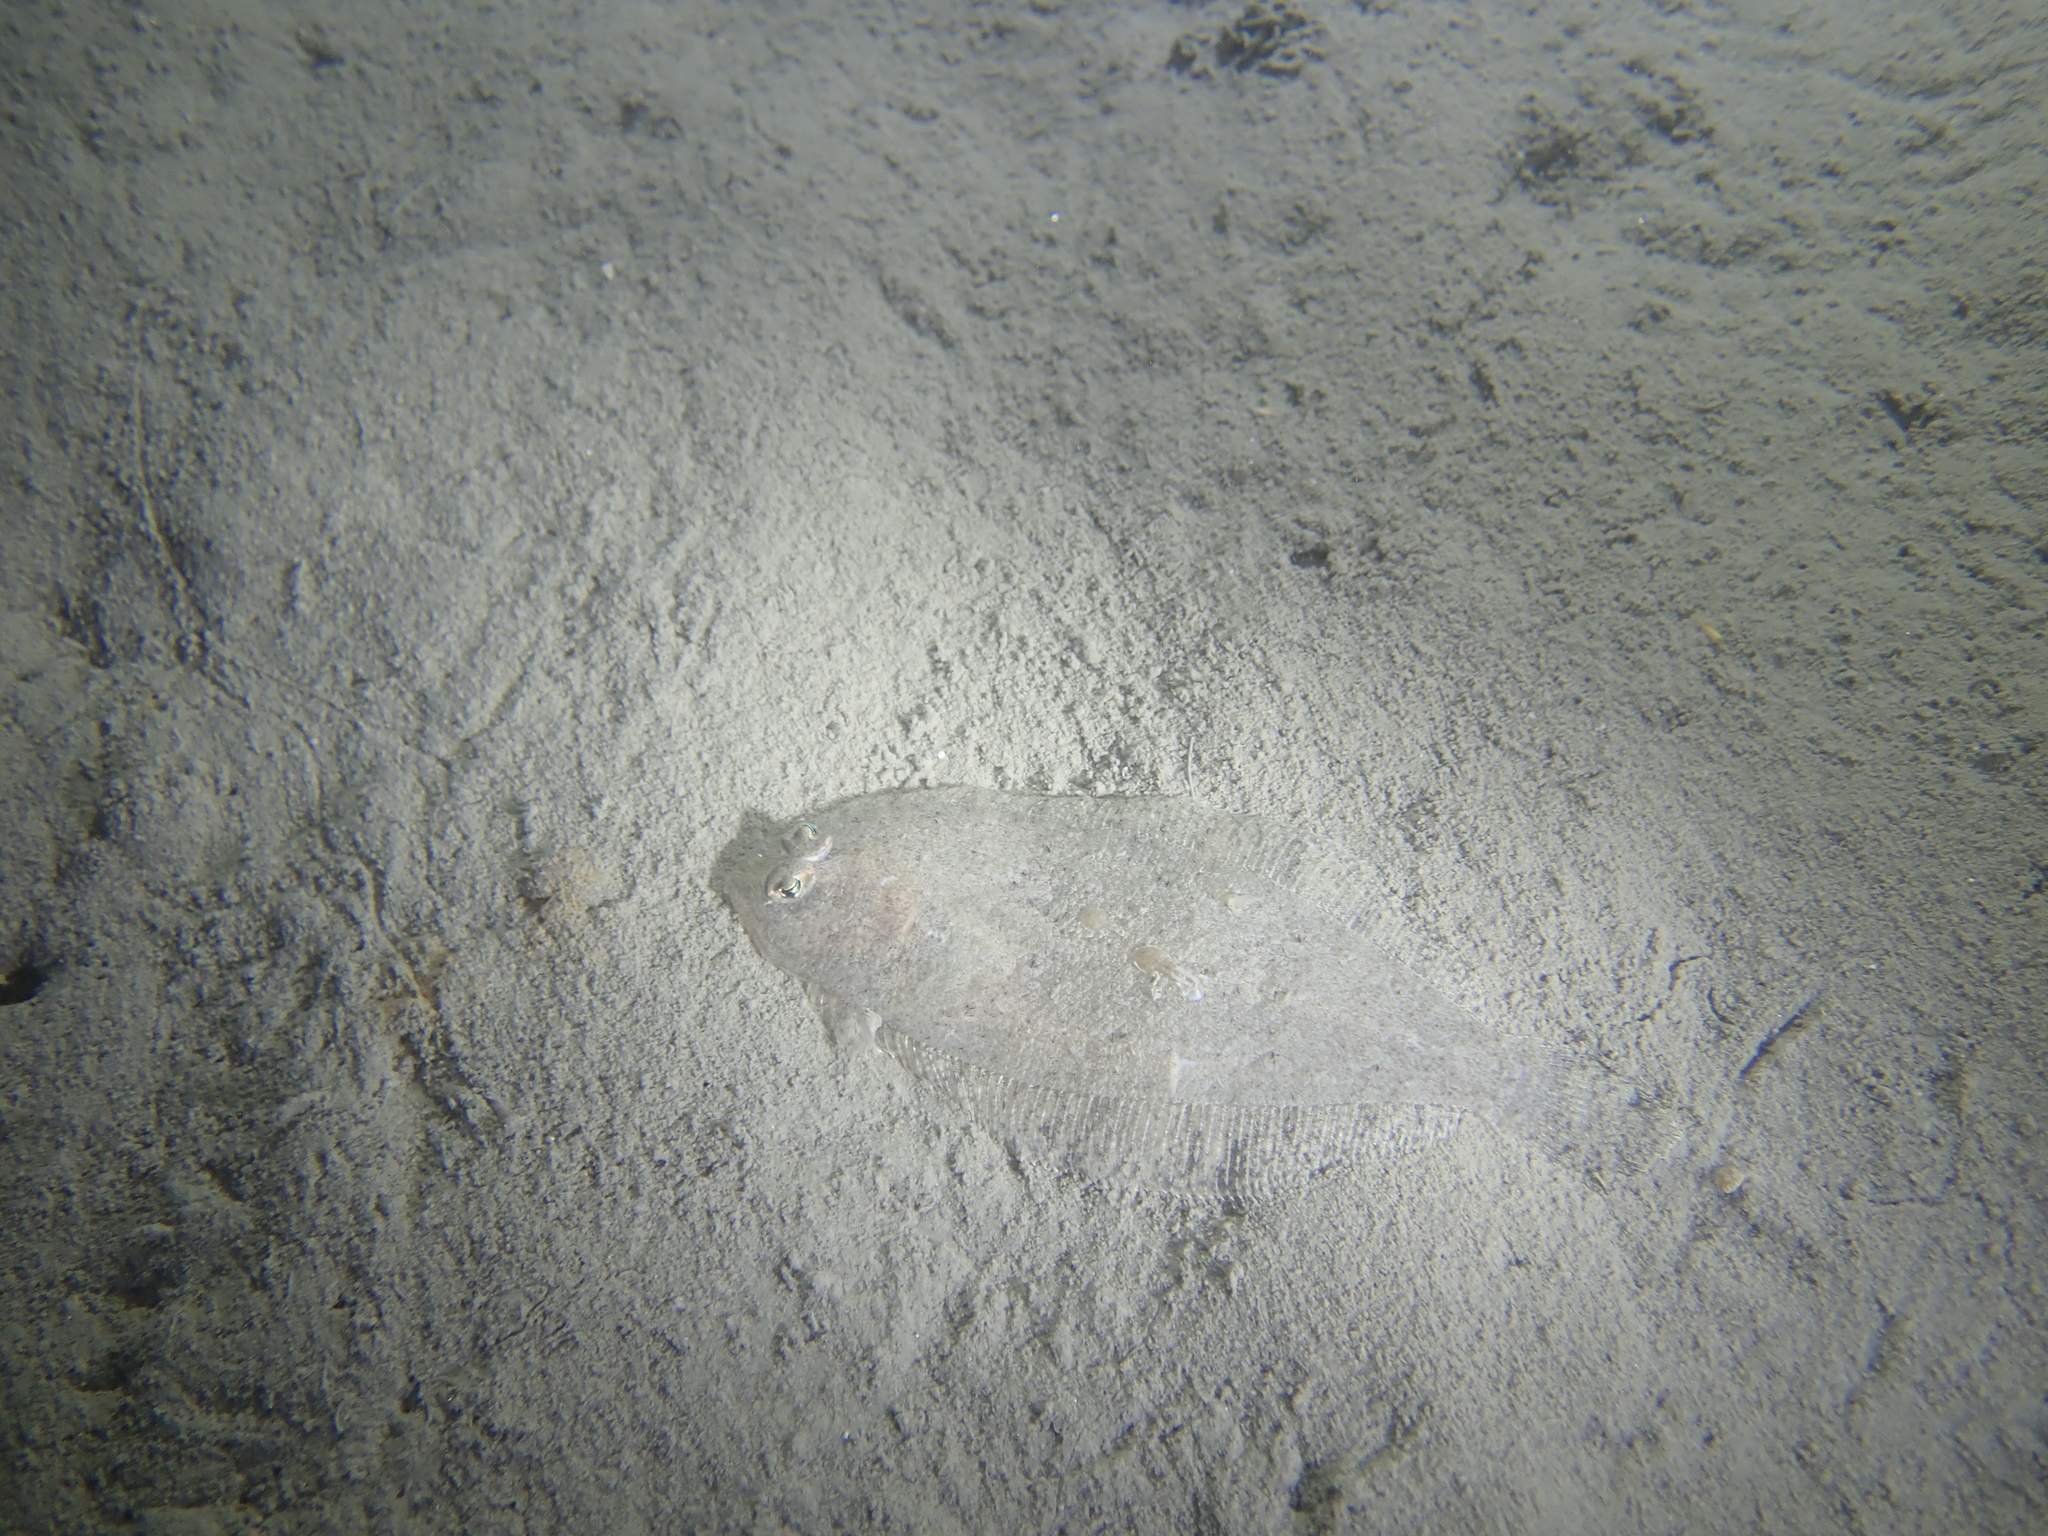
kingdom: Animalia
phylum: Chordata
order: Pleuronectiformes
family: Bothidae
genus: Arnoglossus
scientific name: Arnoglossus laterna
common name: Scaldfish
